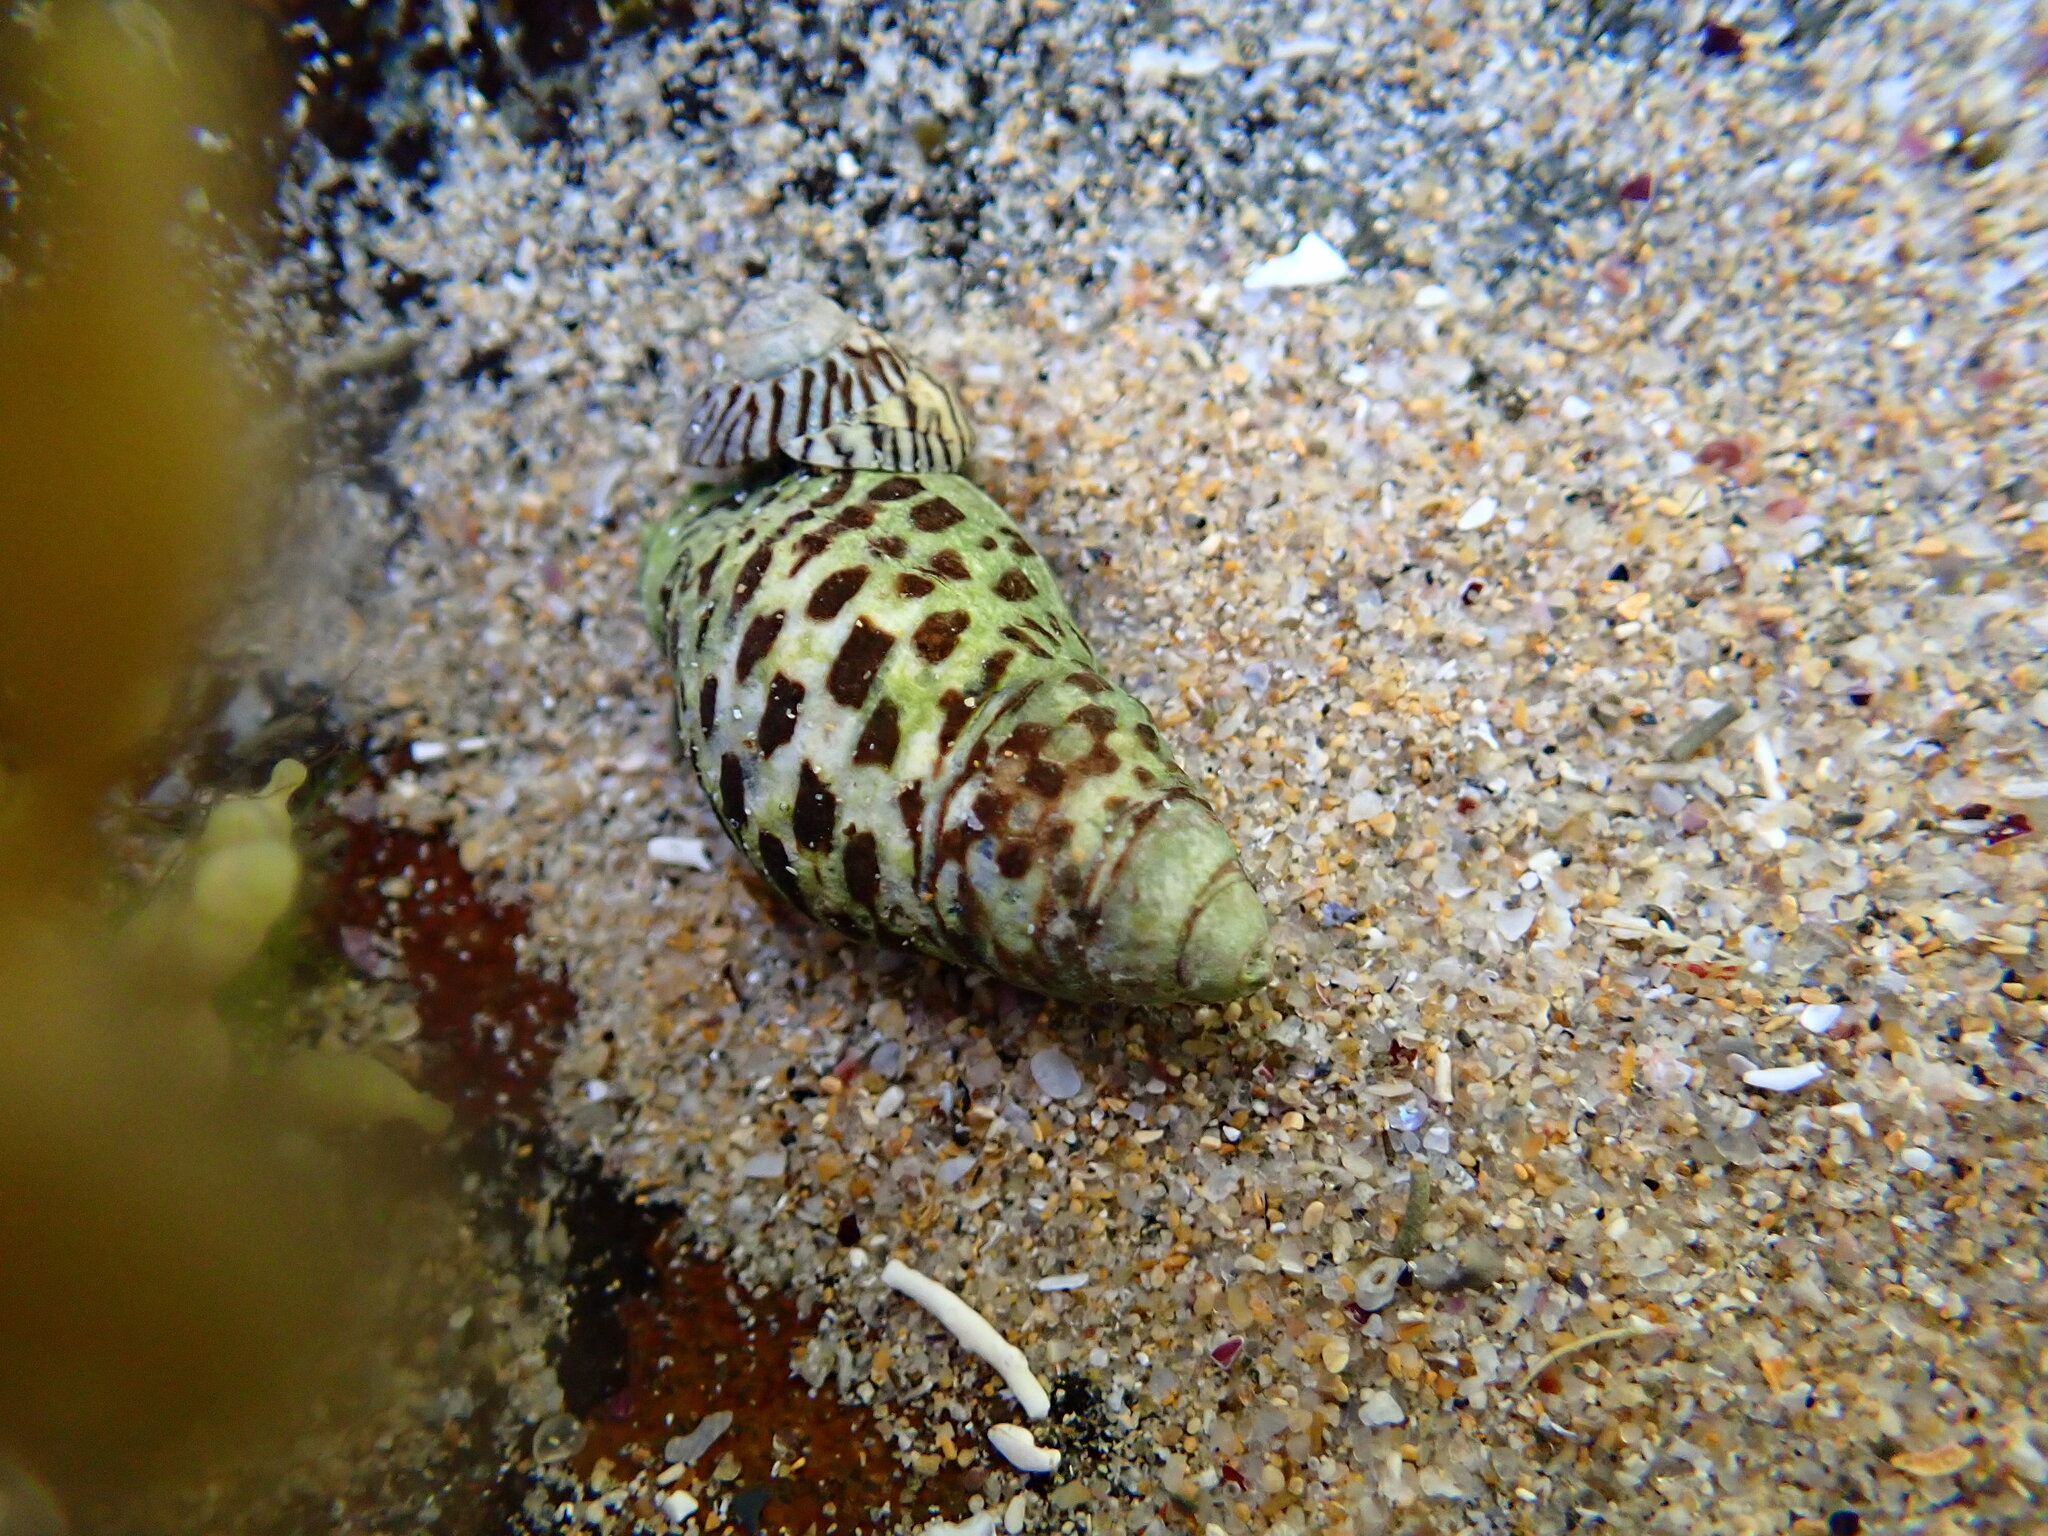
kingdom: Animalia
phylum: Mollusca
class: Gastropoda
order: Neogastropoda
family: Cominellidae
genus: Cominella
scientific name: Cominella lineolata
